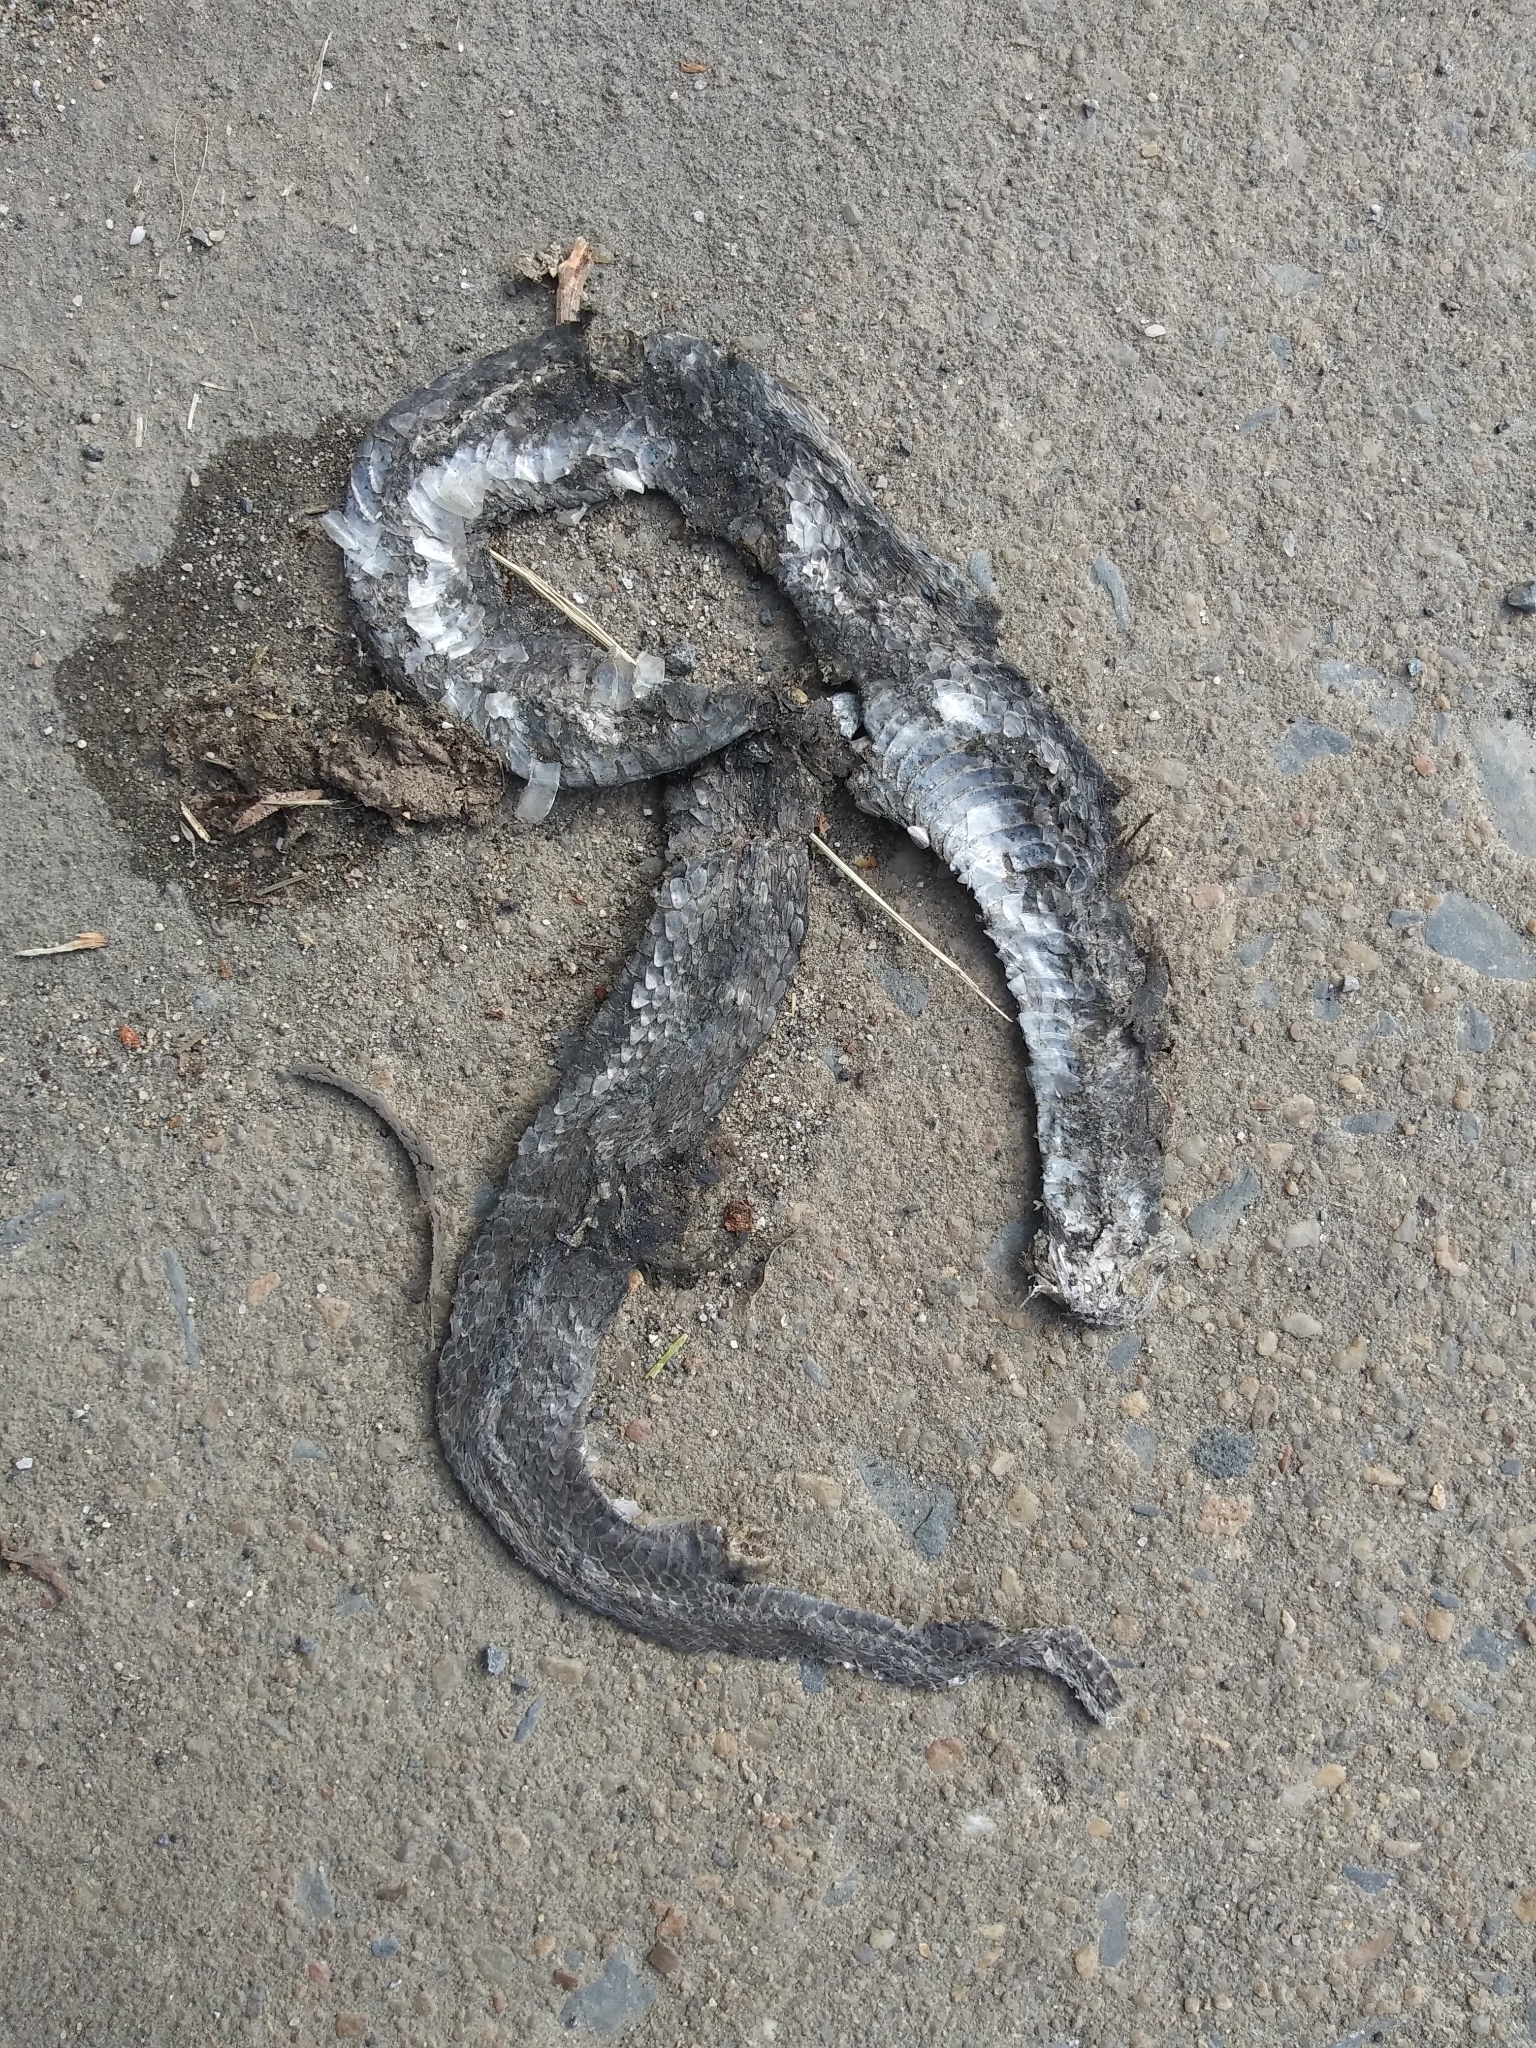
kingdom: Animalia
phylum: Chordata
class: Squamata
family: Colubridae
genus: Storeria
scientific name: Storeria dekayi
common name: (dekay’s) brown snake
